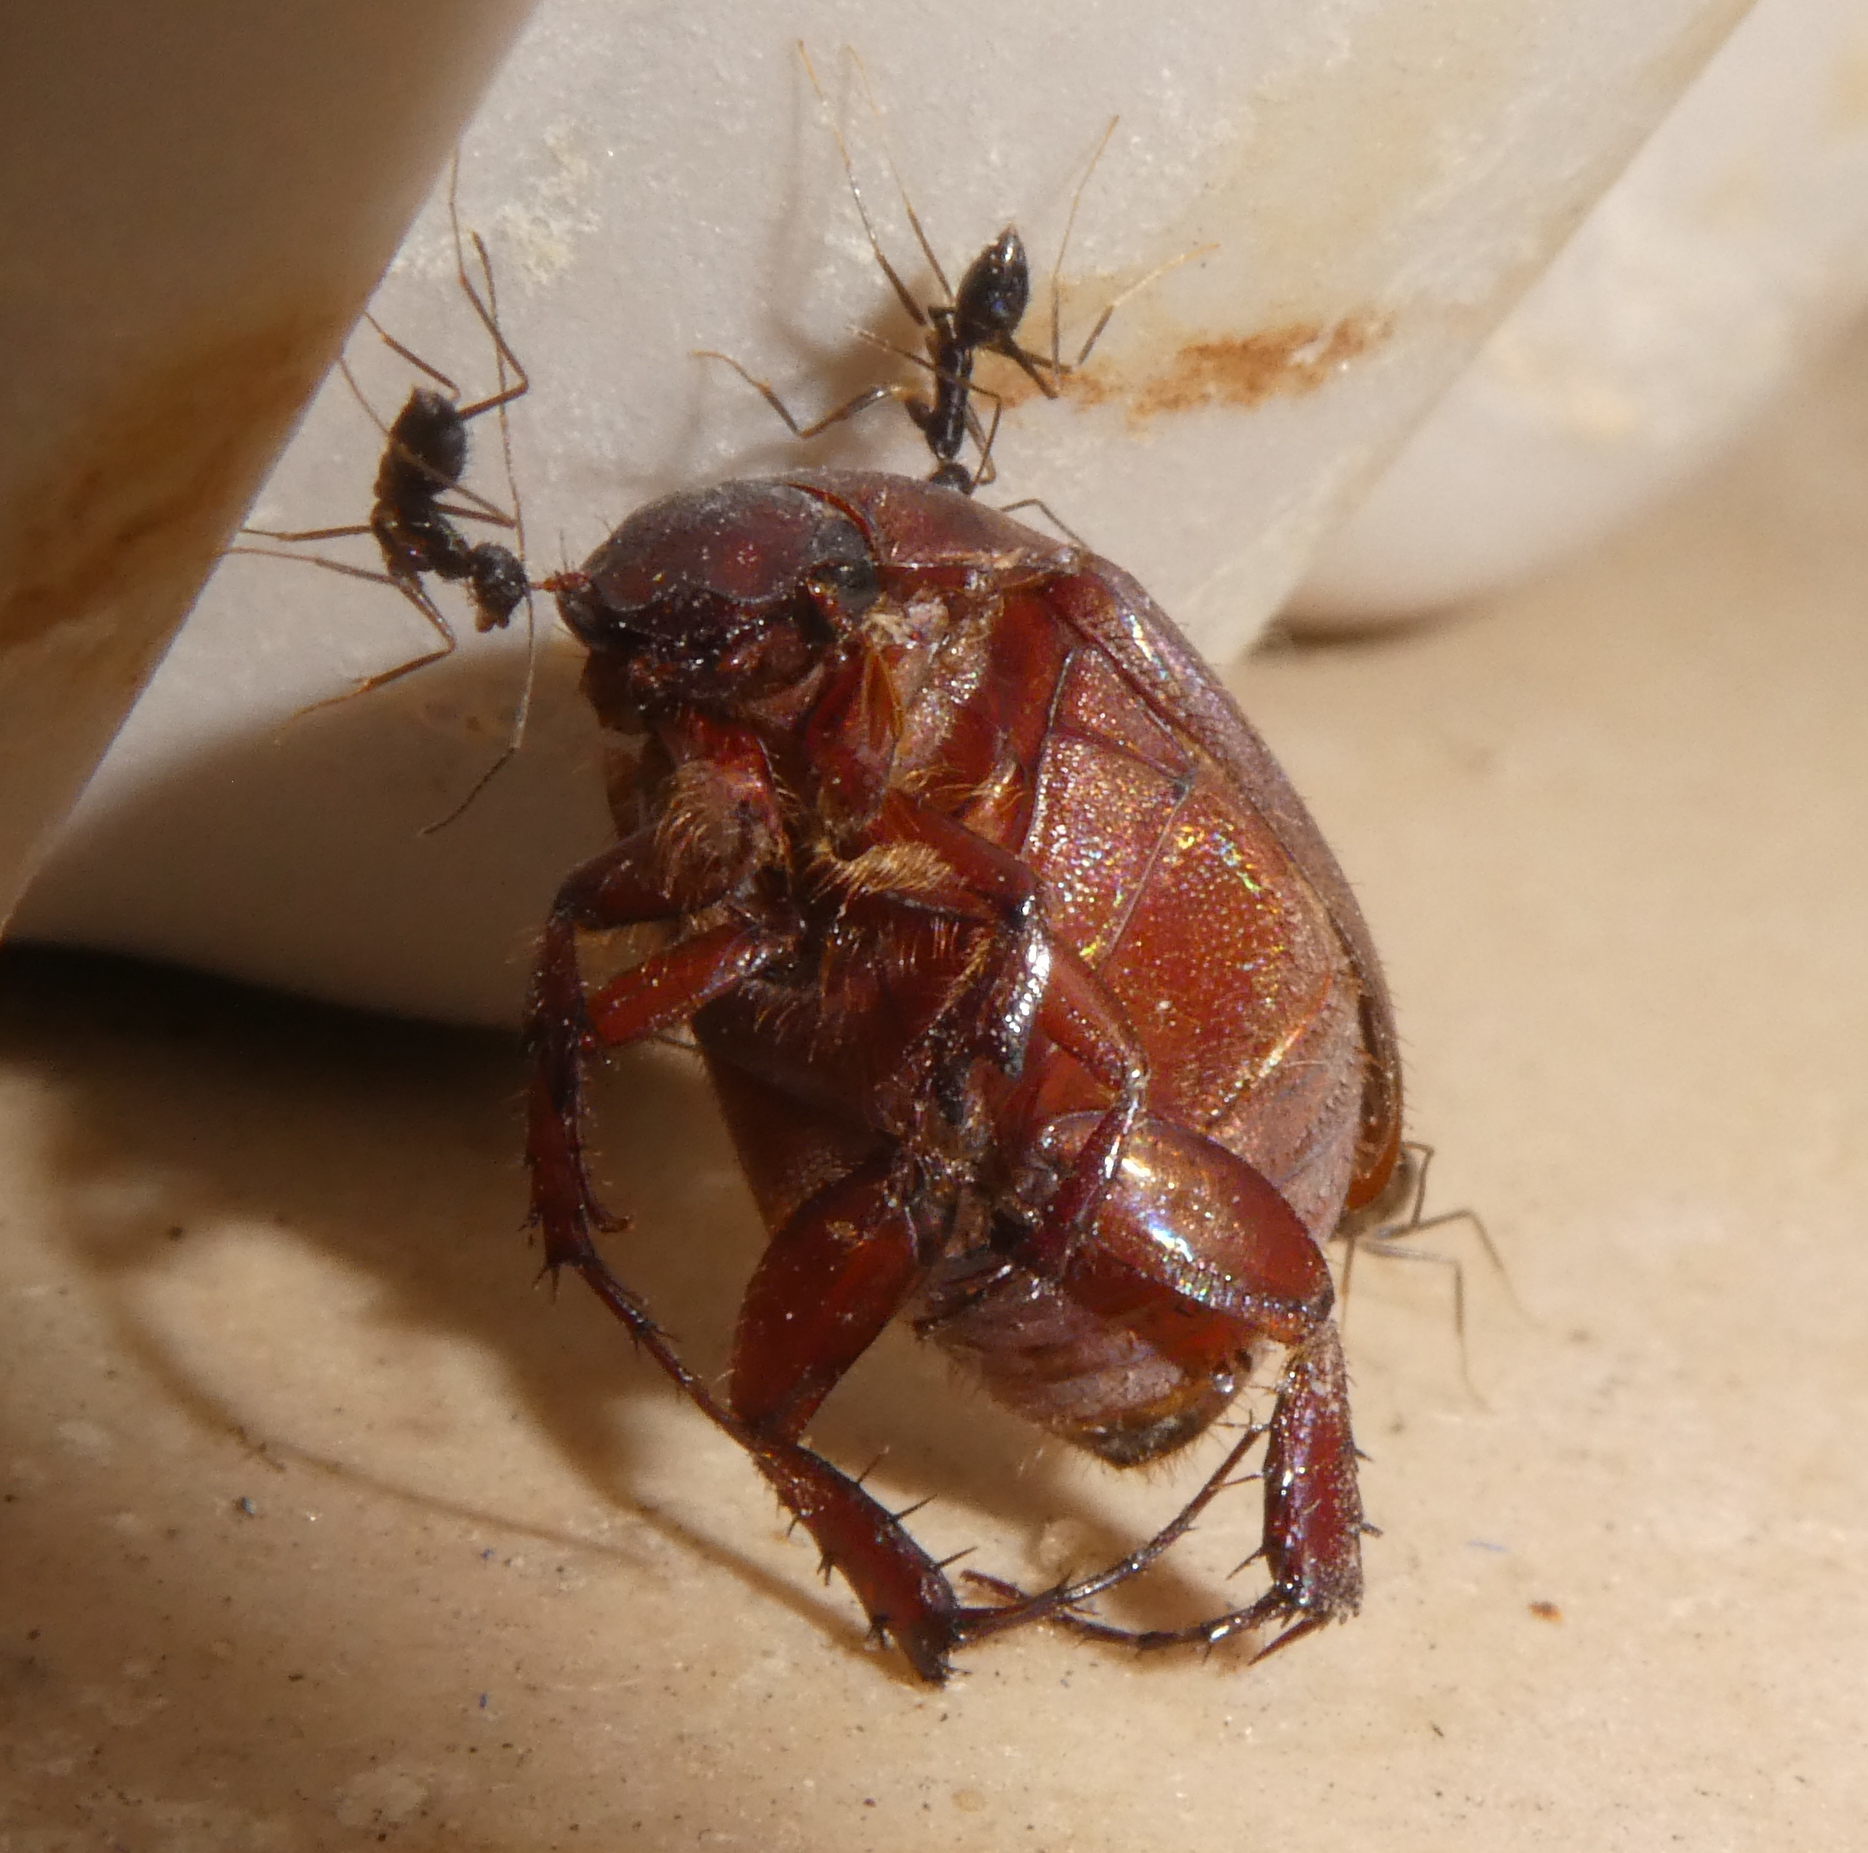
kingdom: Animalia
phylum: Arthropoda
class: Insecta
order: Hymenoptera
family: Formicidae
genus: Paratrechina
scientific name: Paratrechina longicornis
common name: Longhorned crazy ant
